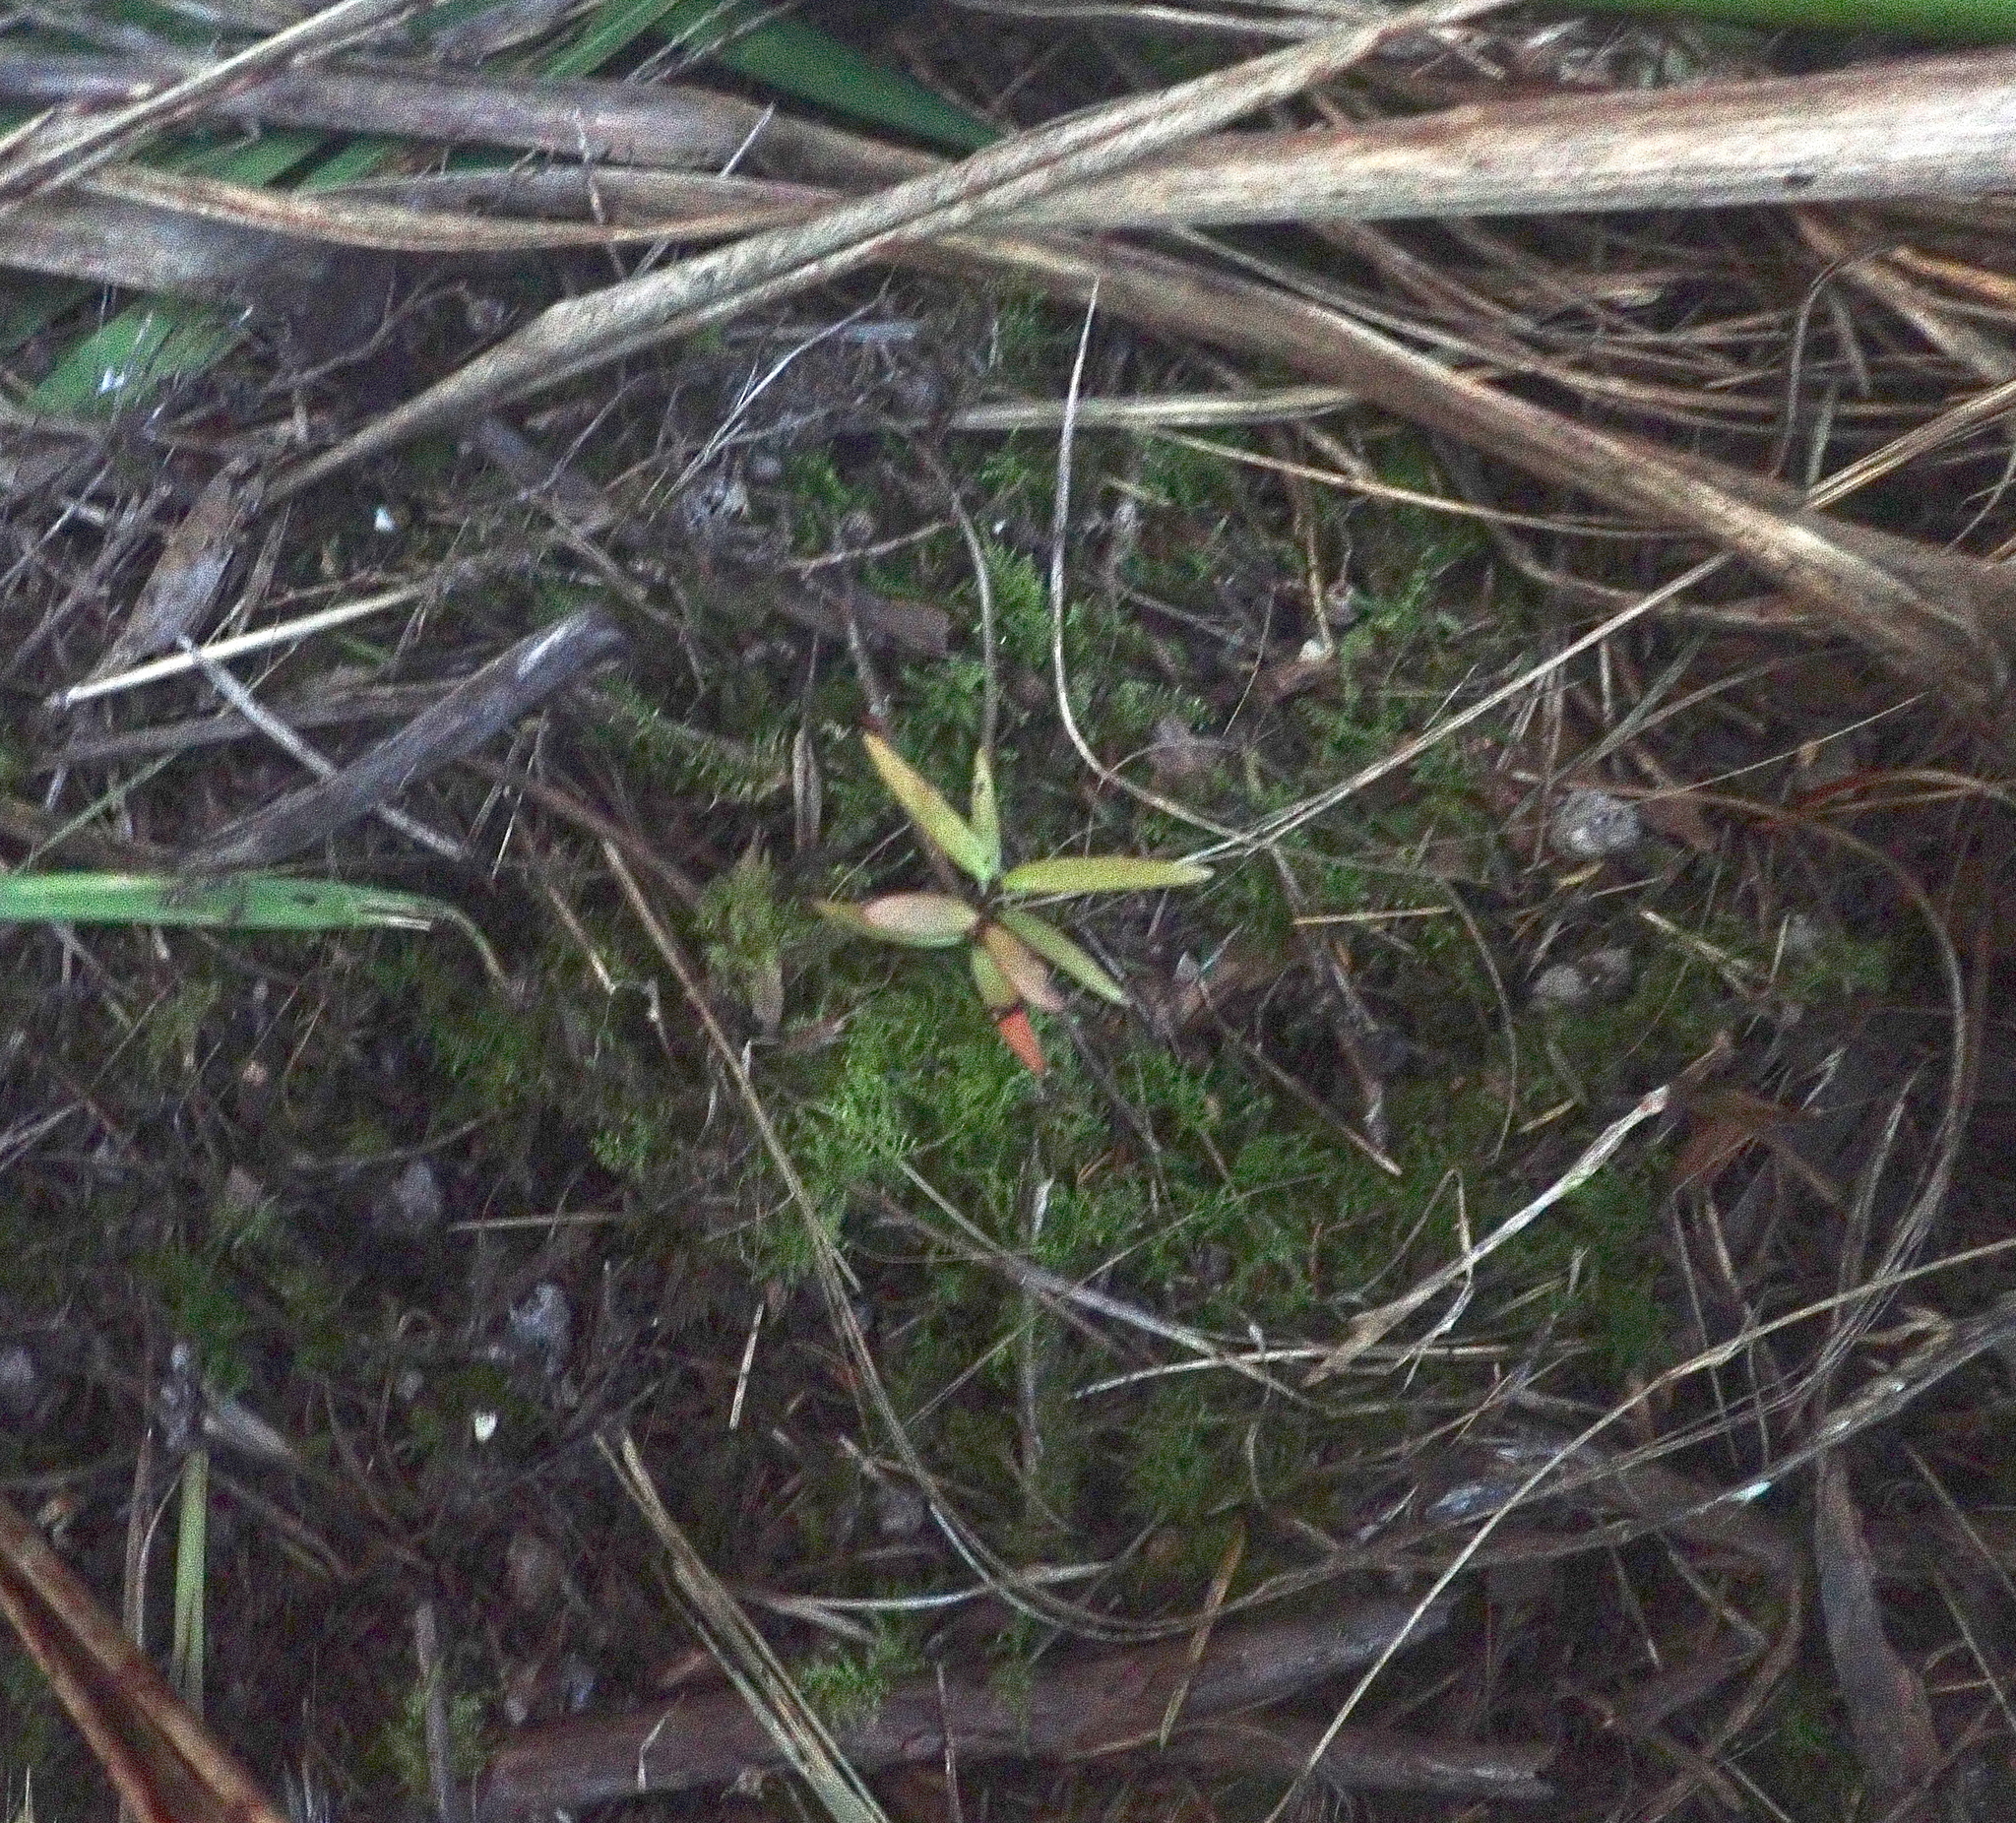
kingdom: Plantae
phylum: Tracheophyta
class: Pinopsida
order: Pinales
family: Araucariaceae
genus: Agathis
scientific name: Agathis australis
